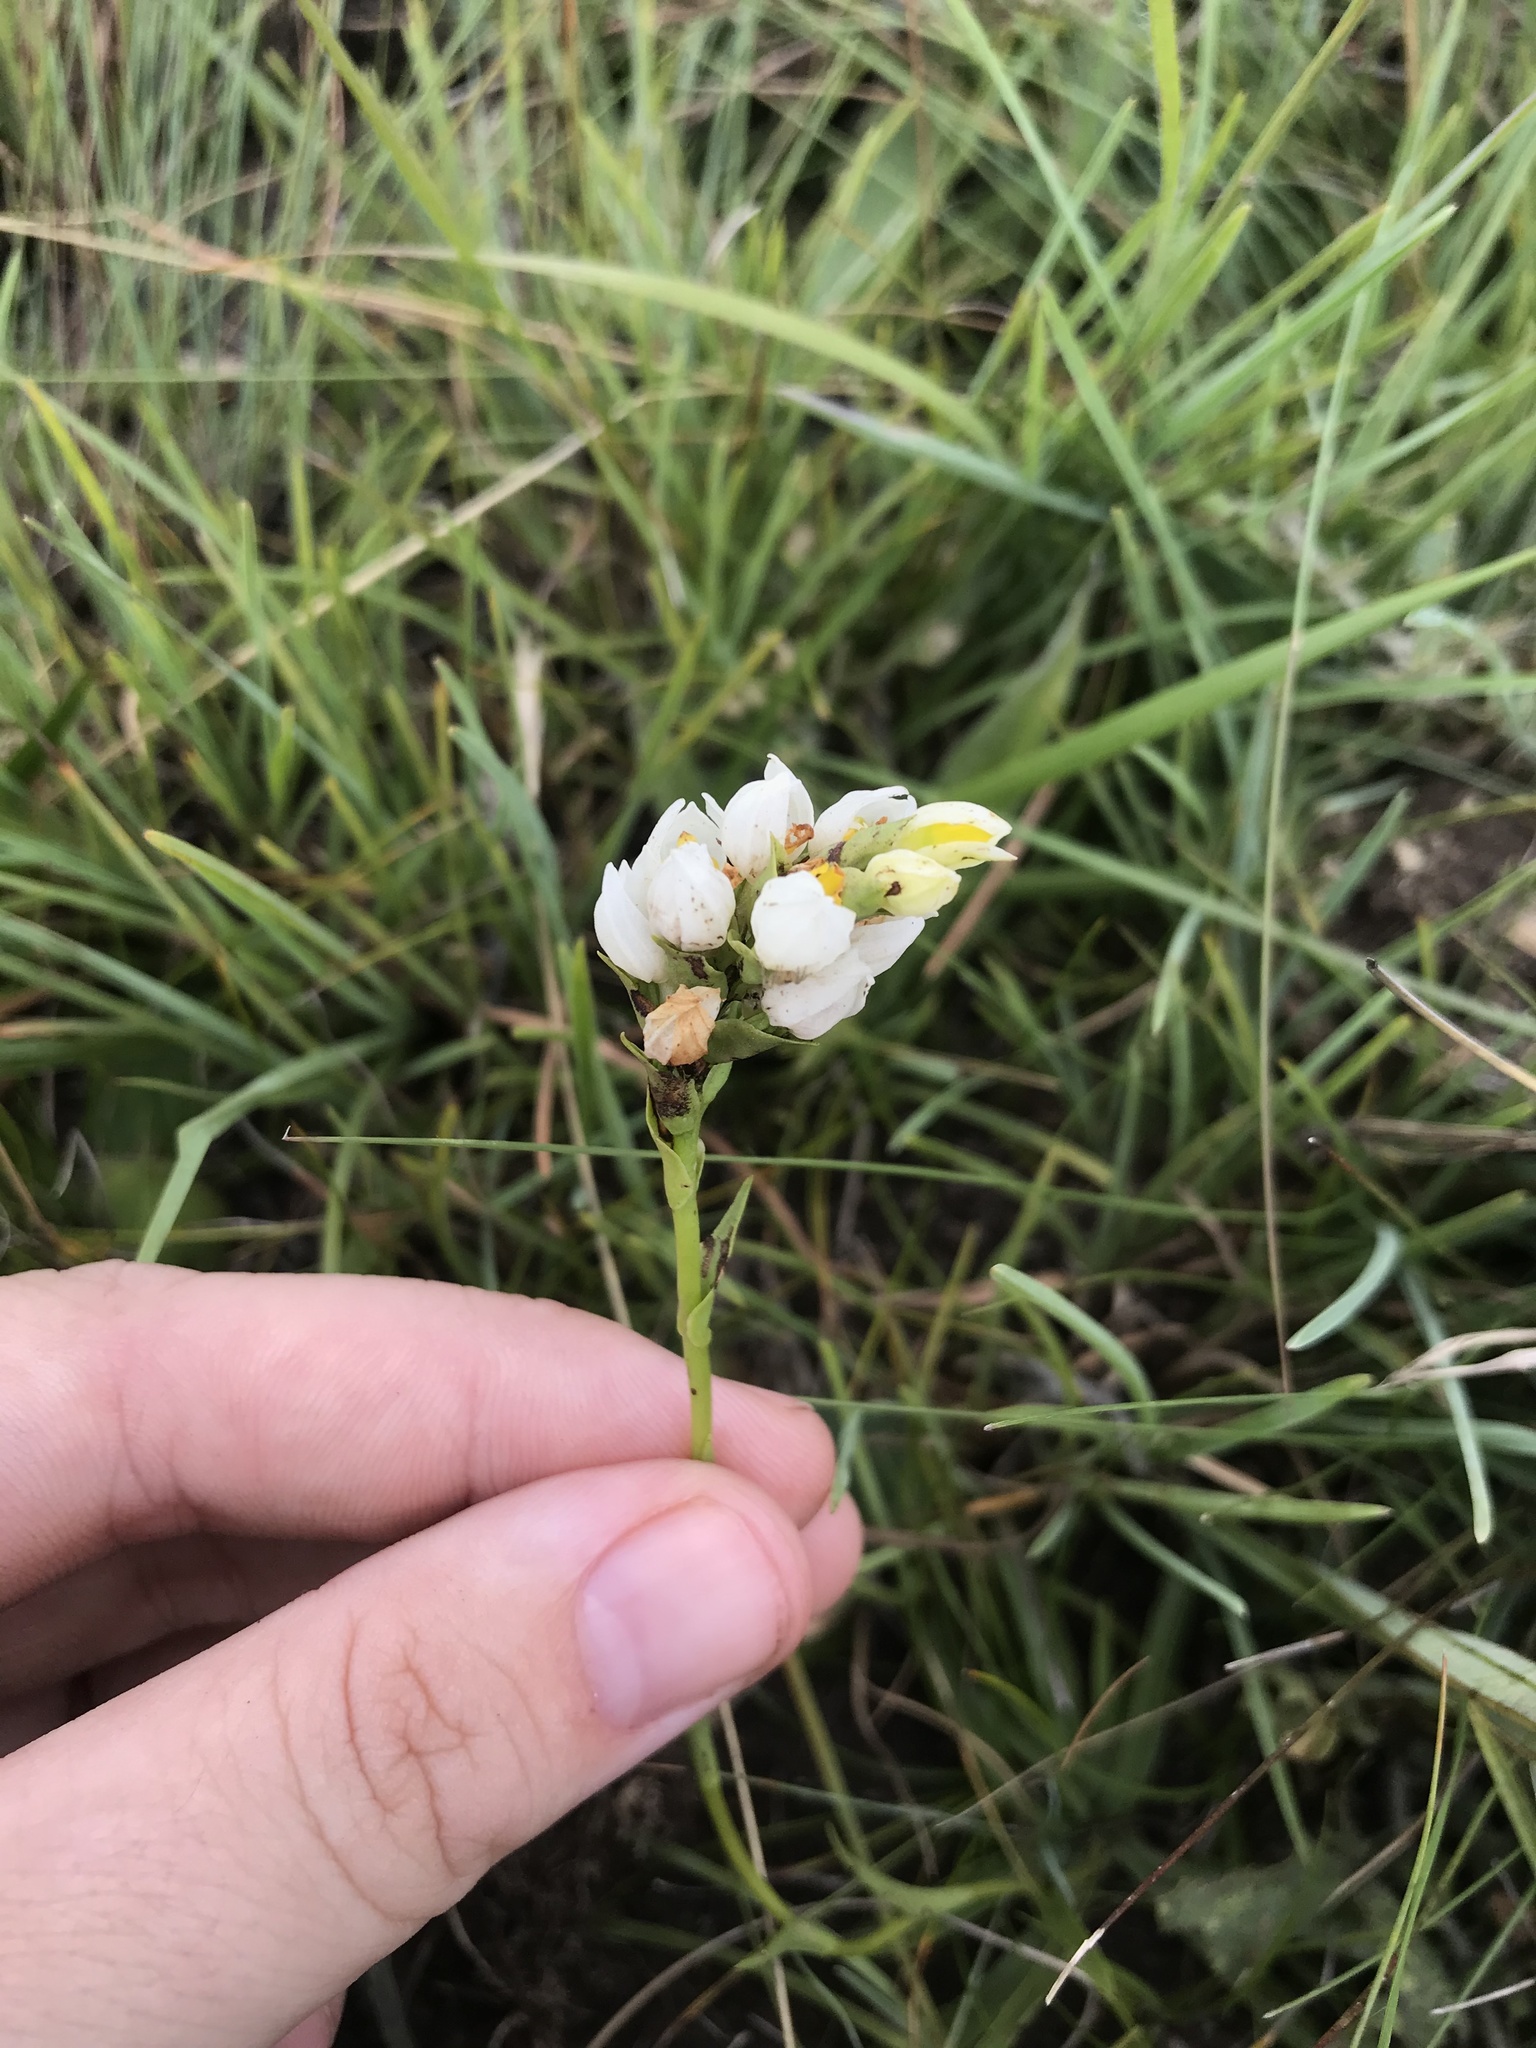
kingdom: Plantae
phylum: Tracheophyta
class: Liliopsida
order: Asparagales
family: Orchidaceae
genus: Schizochilus
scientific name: Schizochilus flexuosus
